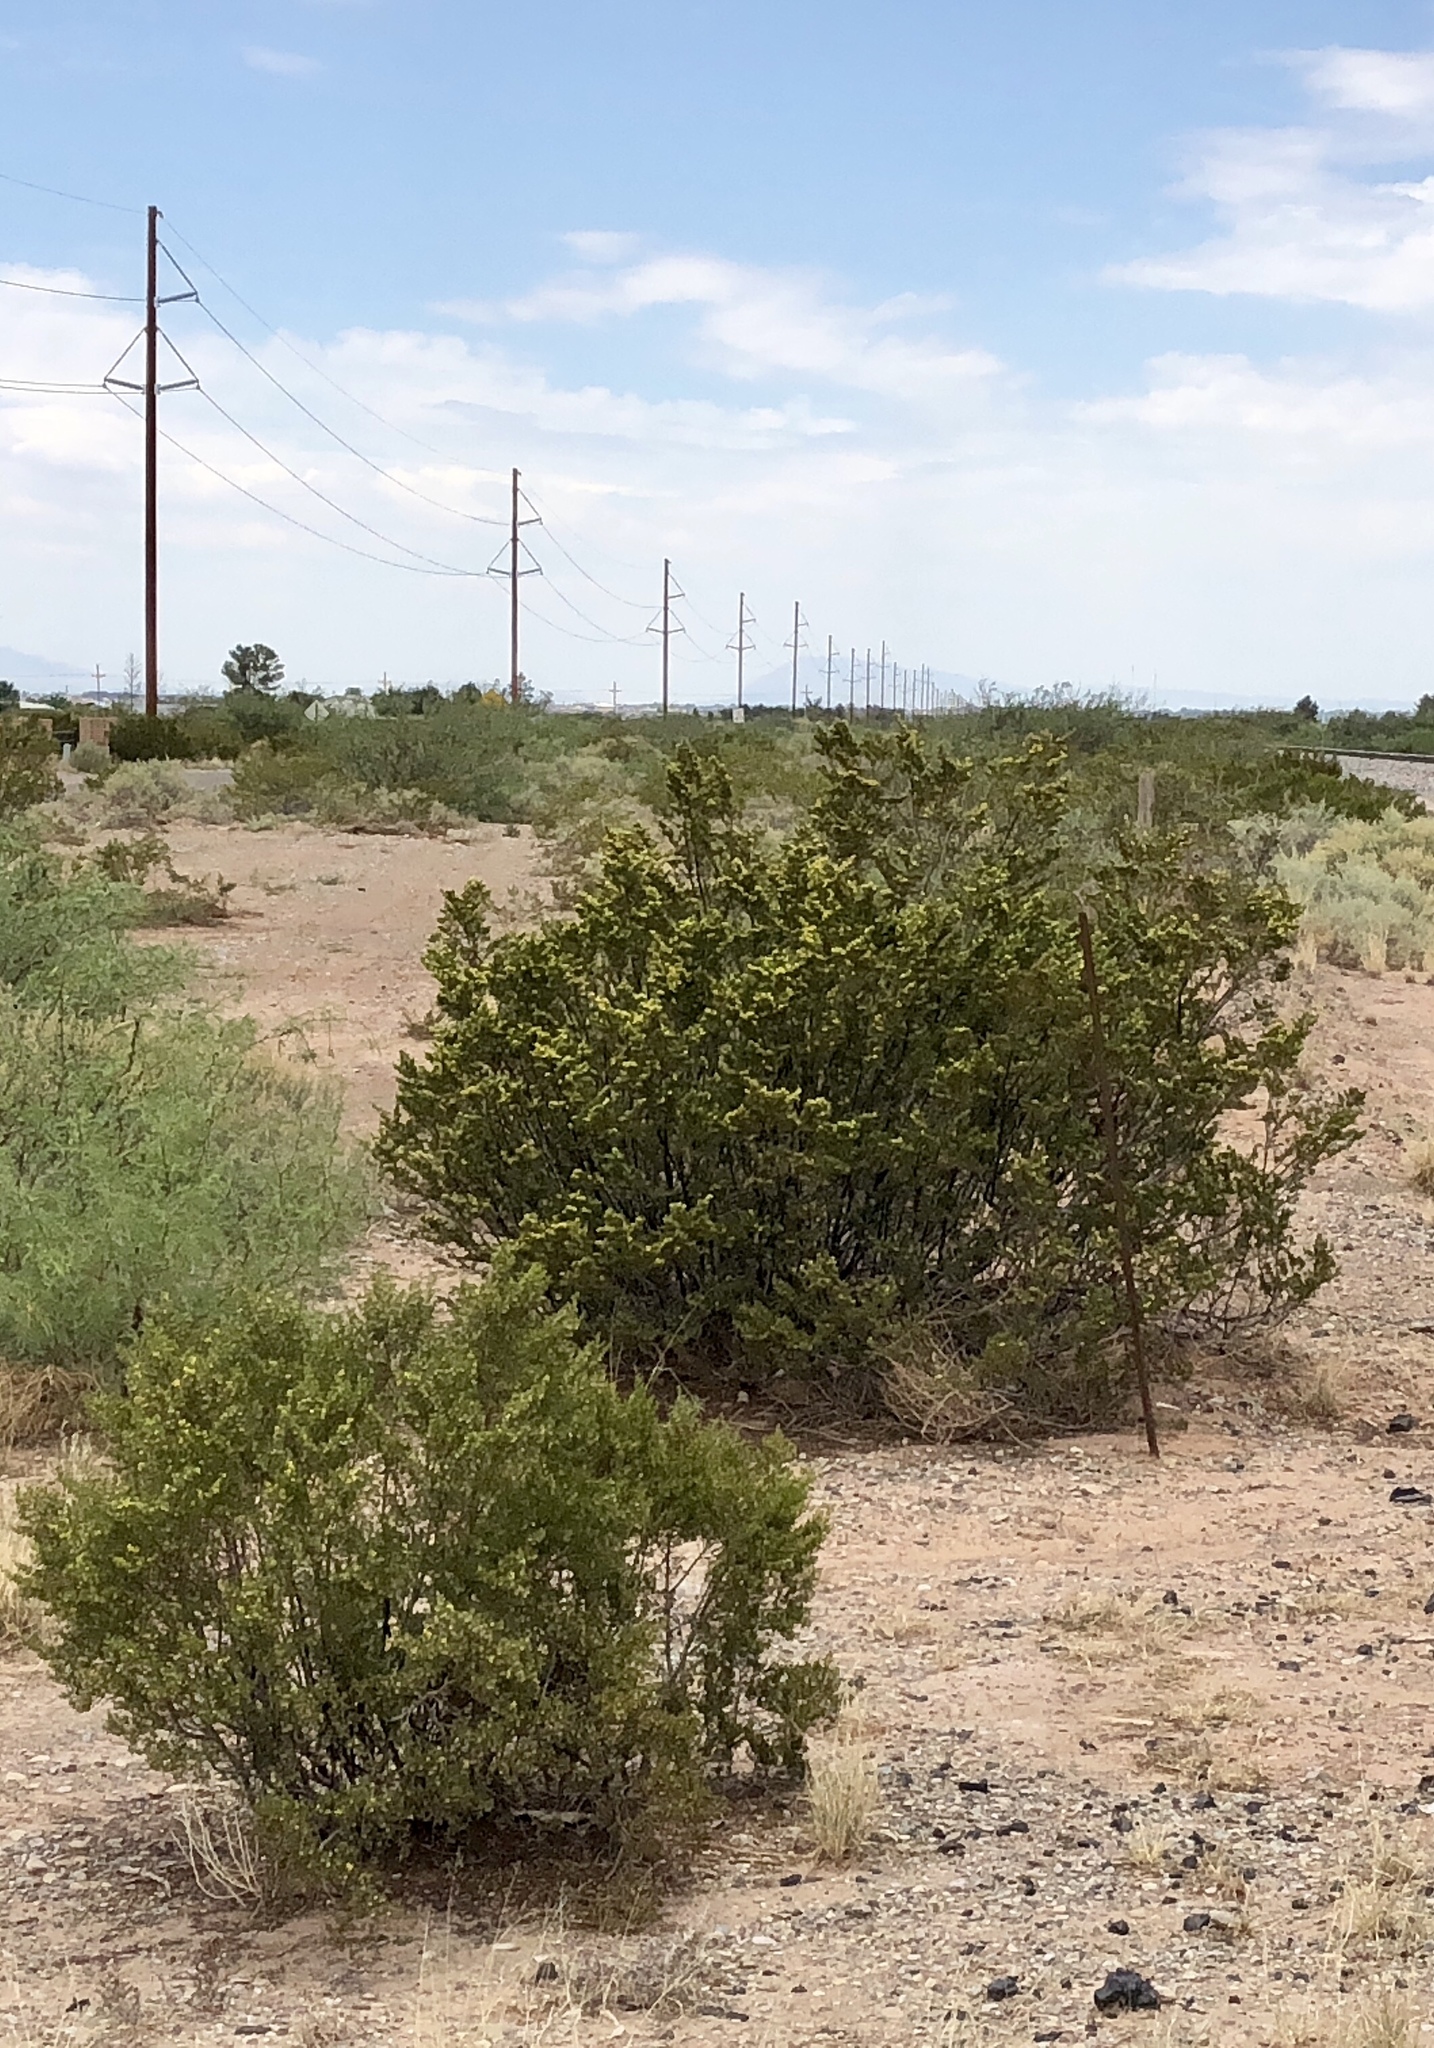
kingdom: Plantae
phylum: Tracheophyta
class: Magnoliopsida
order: Zygophyllales
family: Zygophyllaceae
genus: Larrea
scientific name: Larrea tridentata
